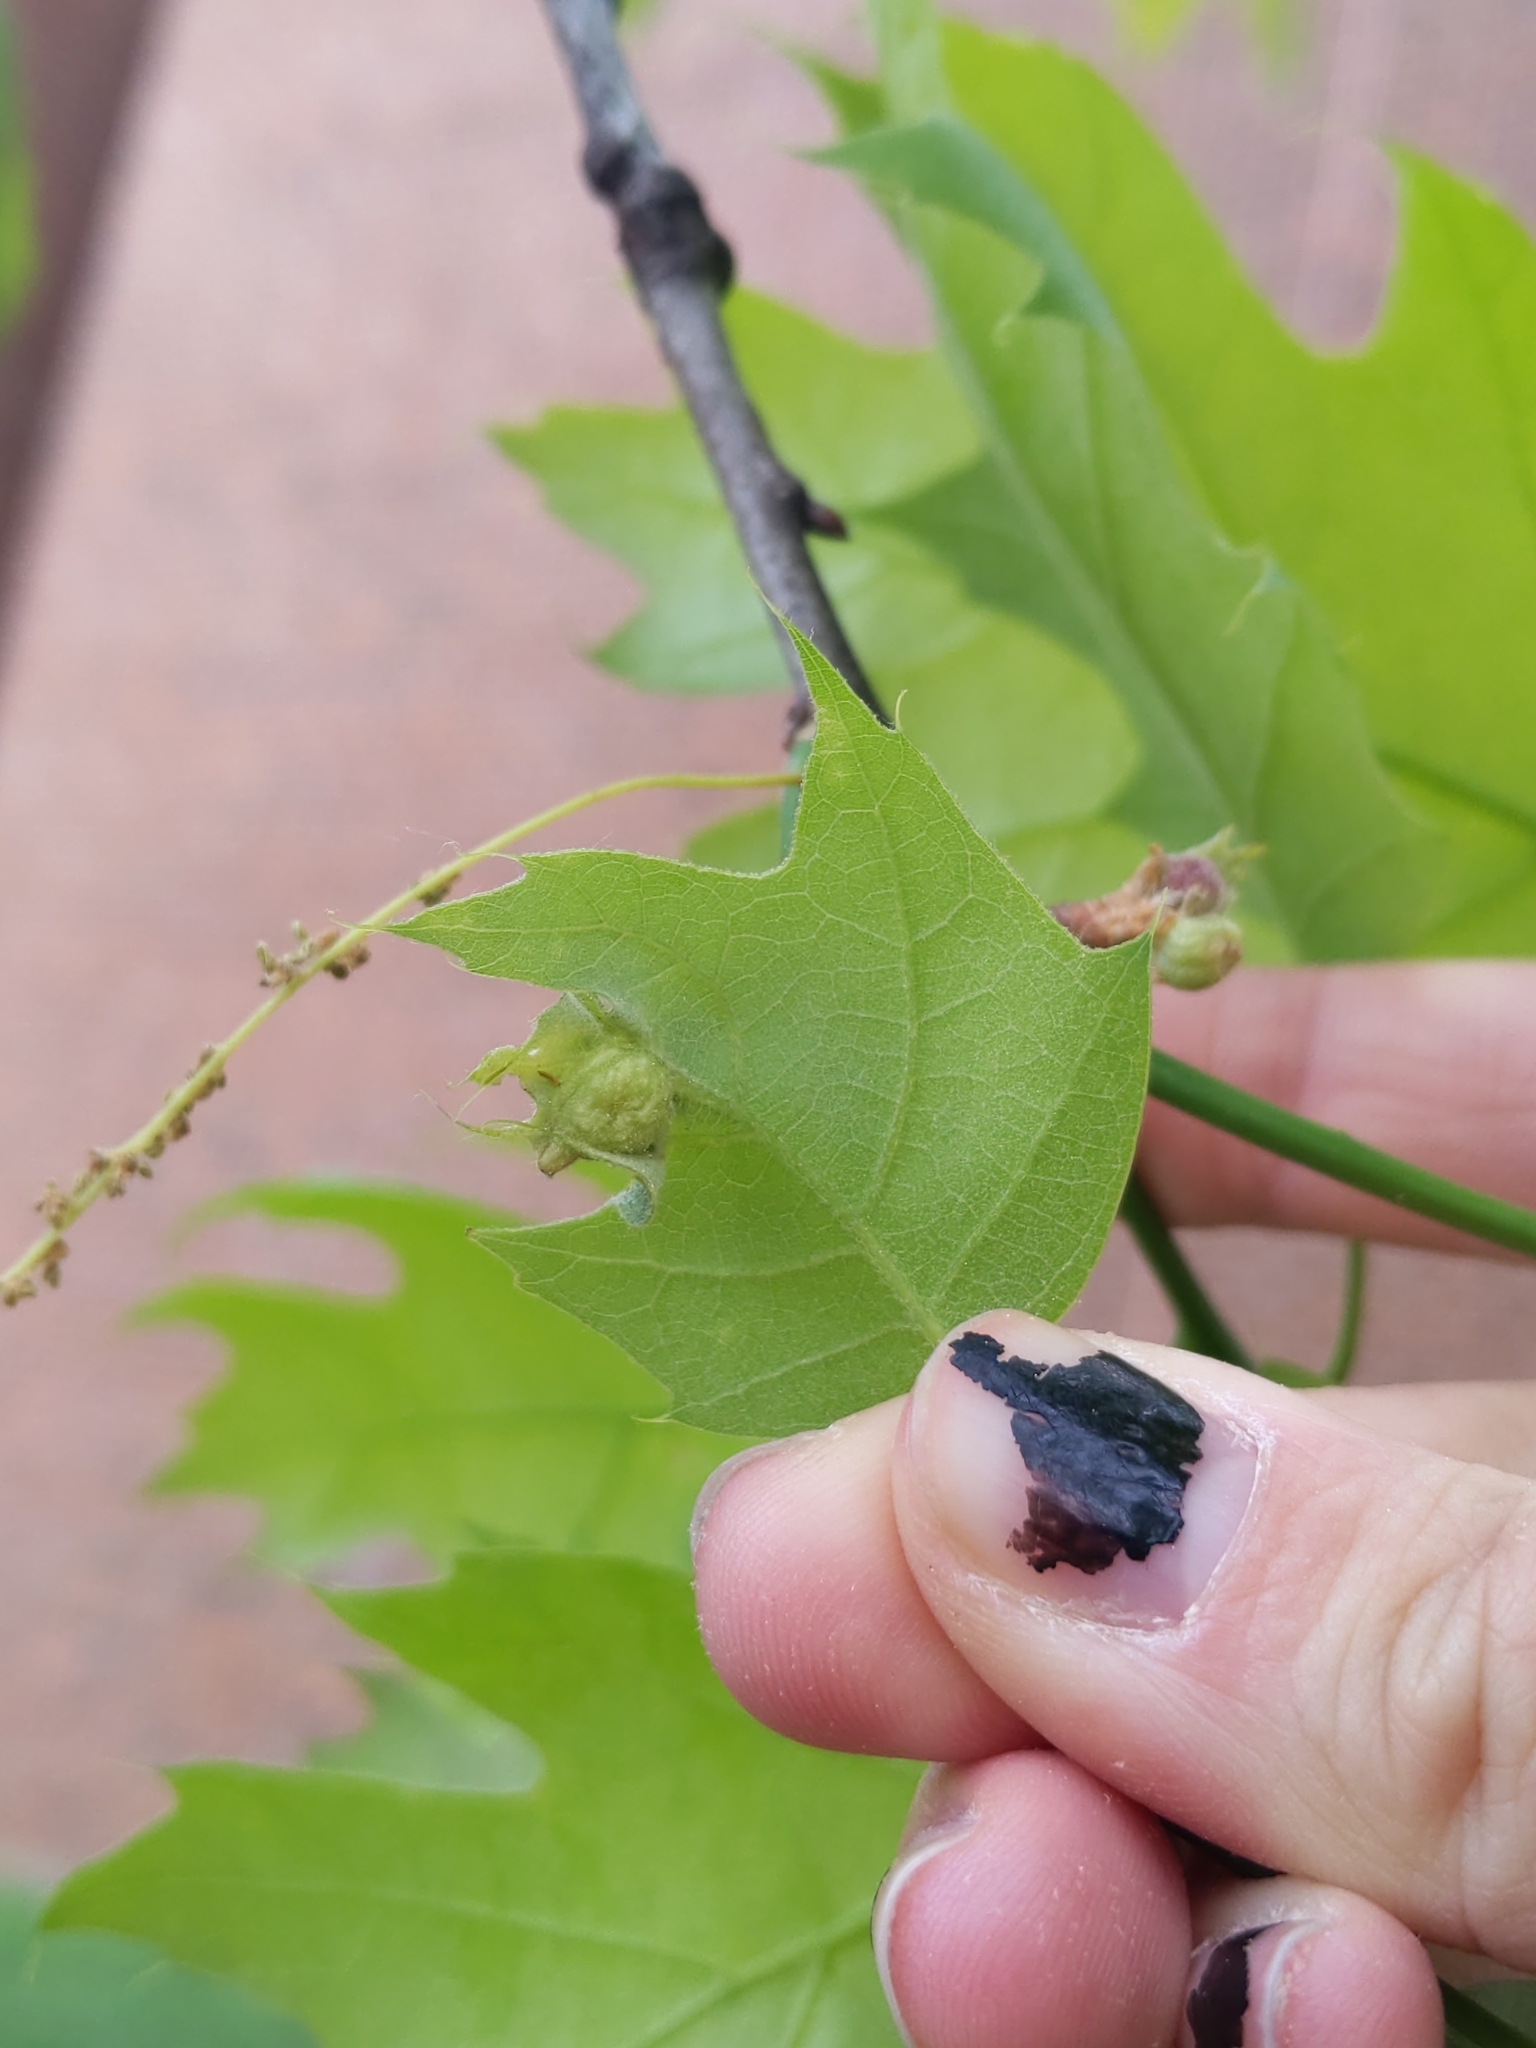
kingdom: Animalia
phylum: Arthropoda
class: Insecta
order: Hymenoptera
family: Cynipidae
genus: Dryocosmus
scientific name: Dryocosmus quercuspalustris
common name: Succulent oak gall wasp
